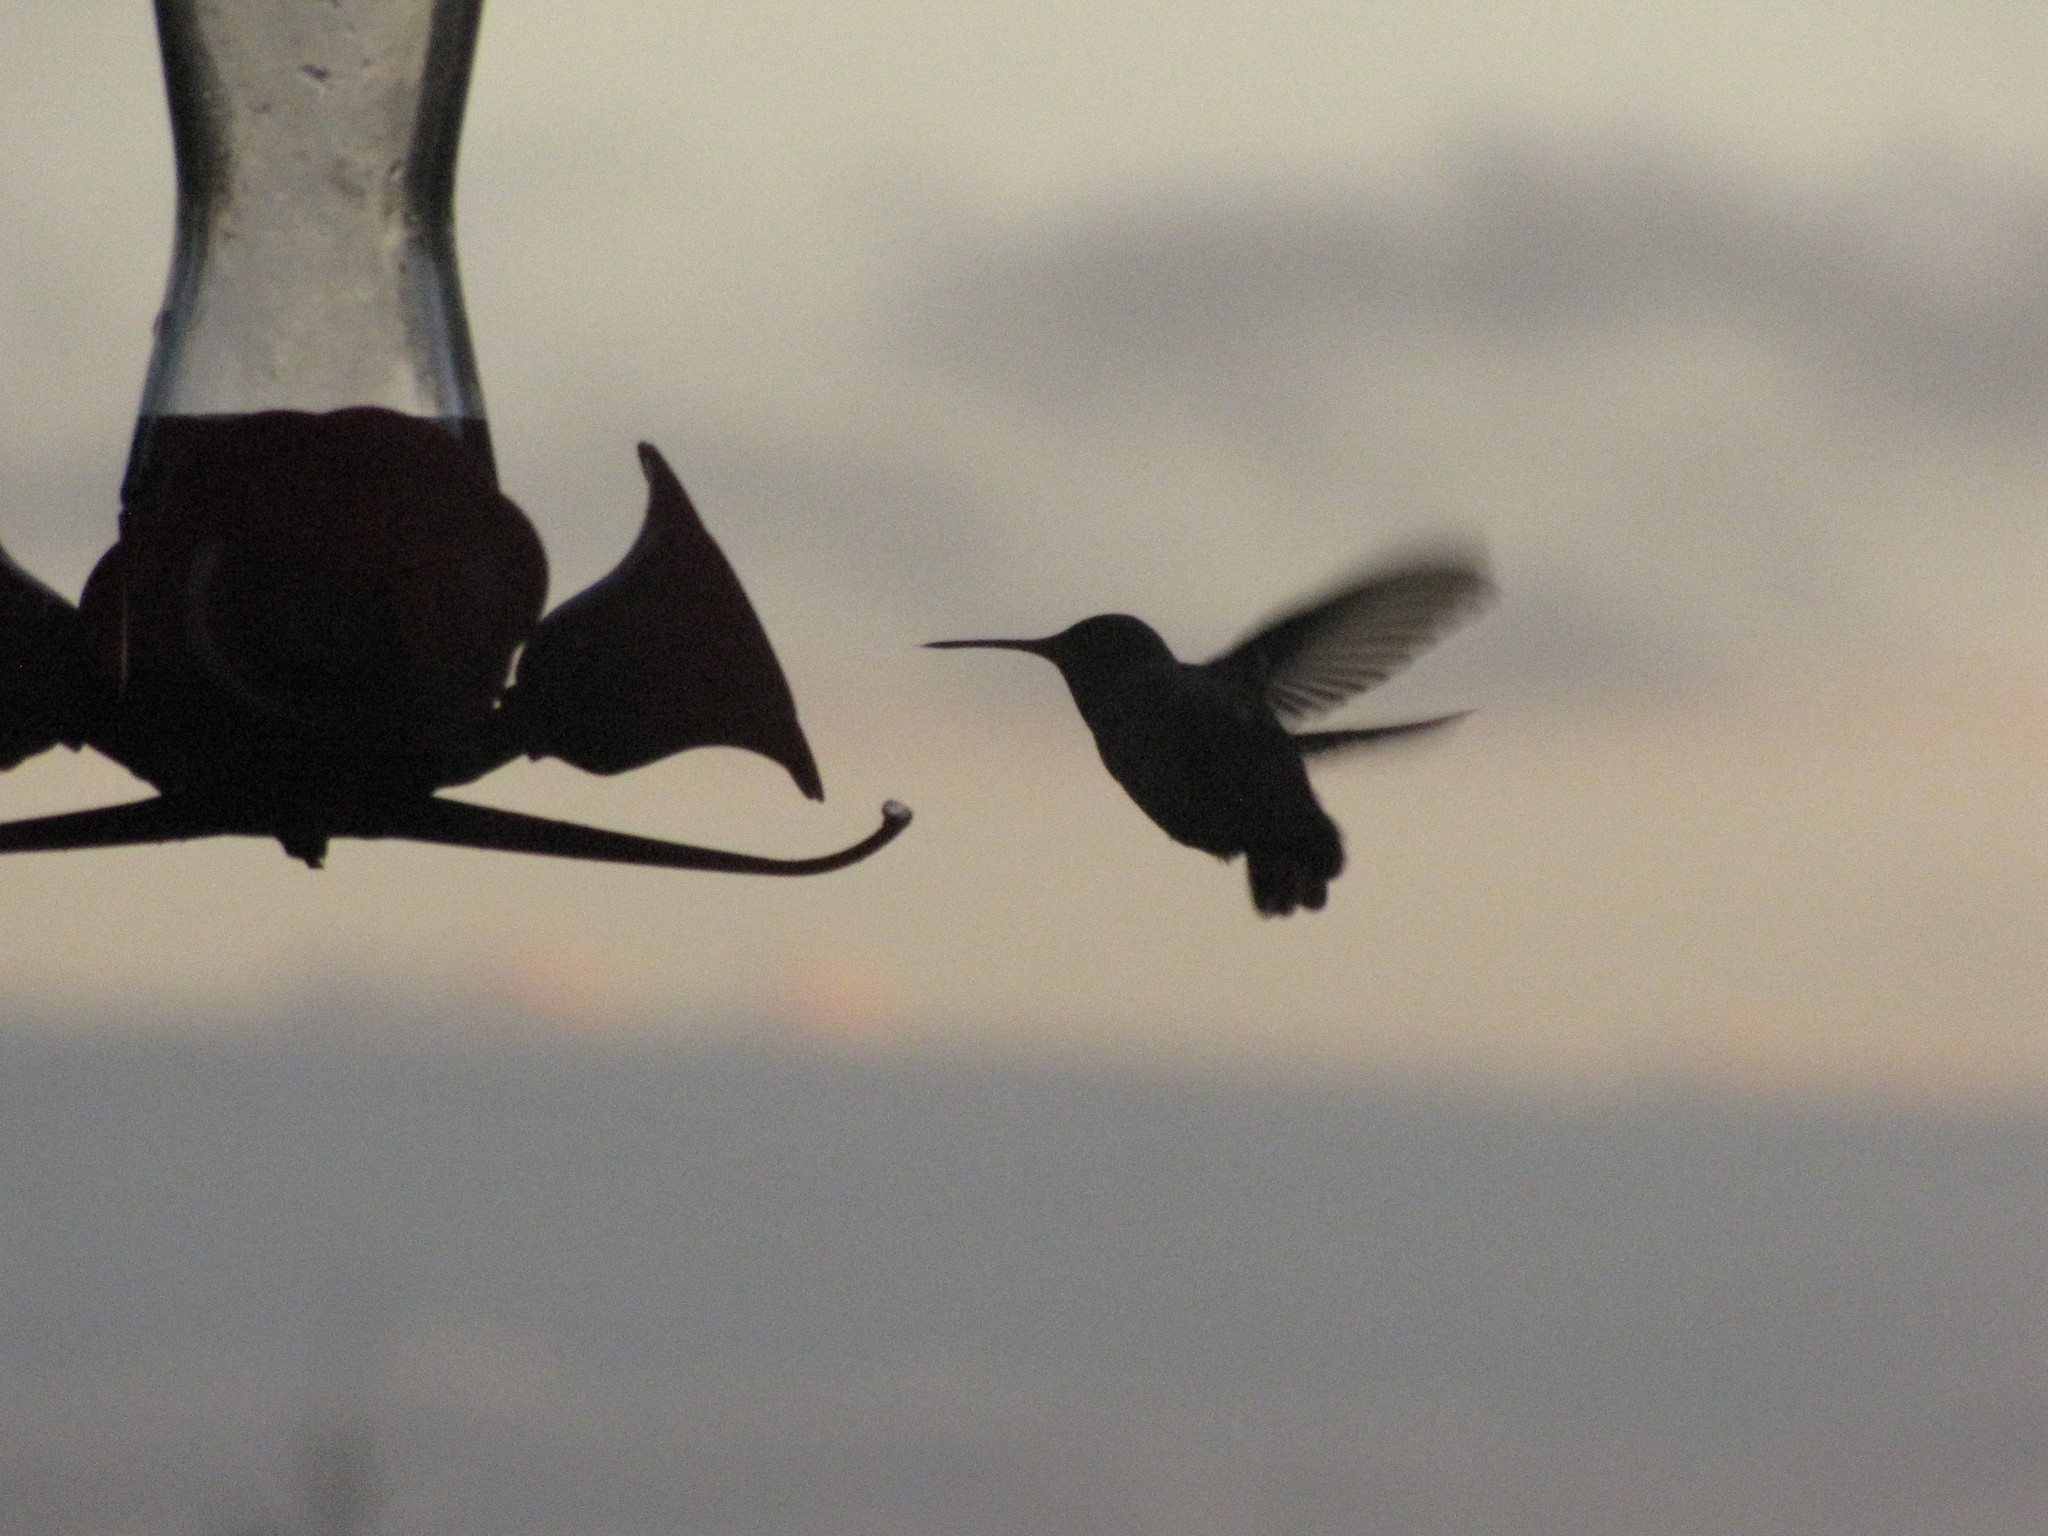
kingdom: Animalia
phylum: Chordata
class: Aves
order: Apodiformes
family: Trochilidae
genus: Calypte
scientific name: Calypte anna
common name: Anna's hummingbird
